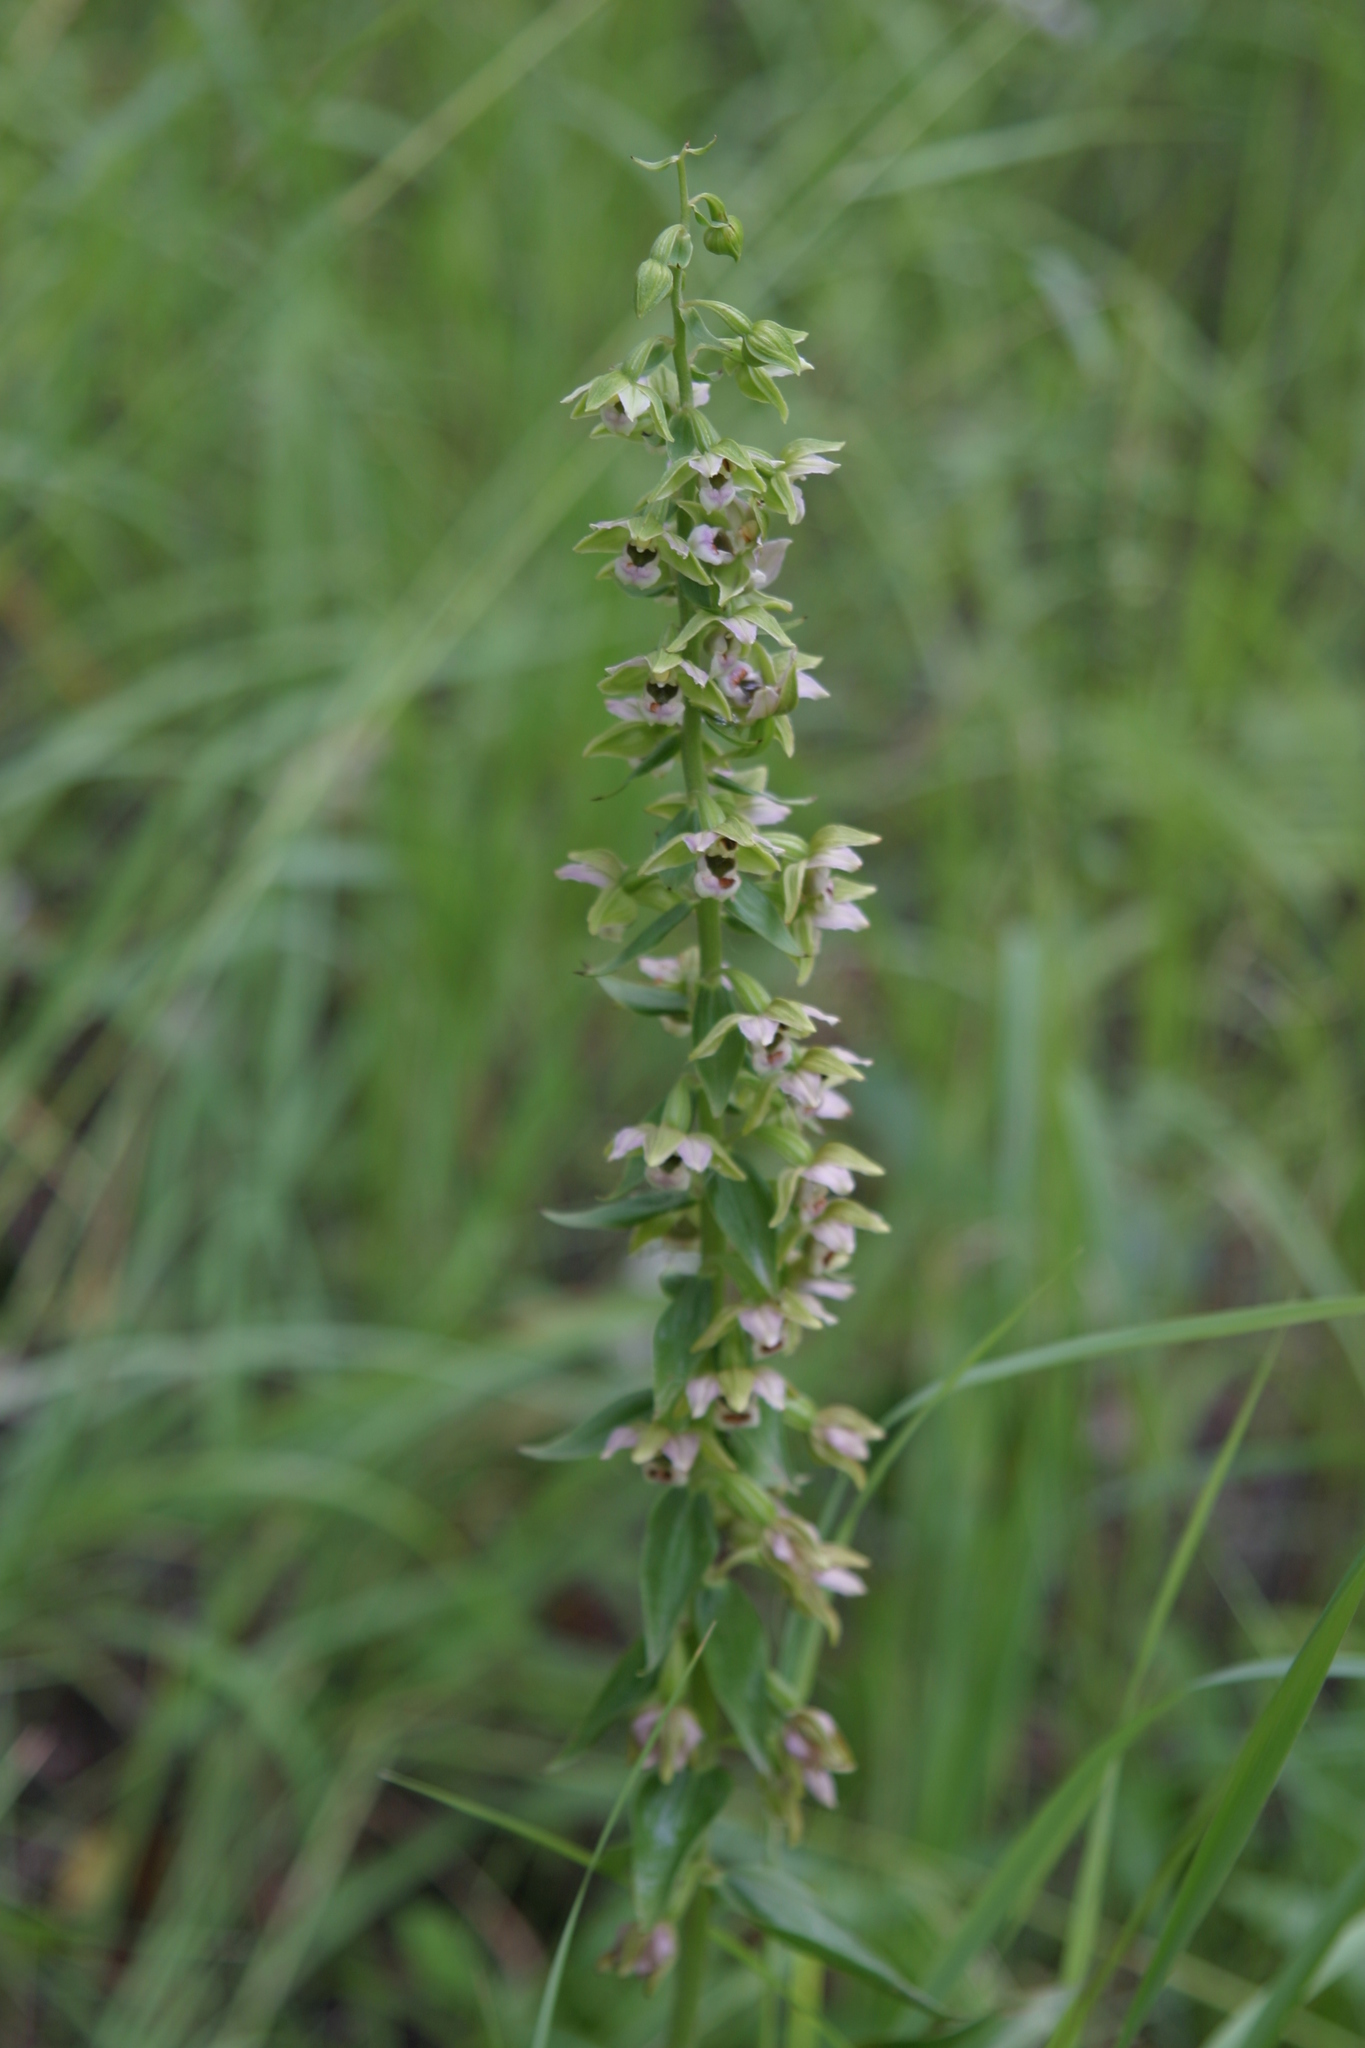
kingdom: Plantae
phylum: Tracheophyta
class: Liliopsida
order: Asparagales
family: Orchidaceae
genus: Epipactis
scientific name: Epipactis helleborine
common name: Broad-leaved helleborine
